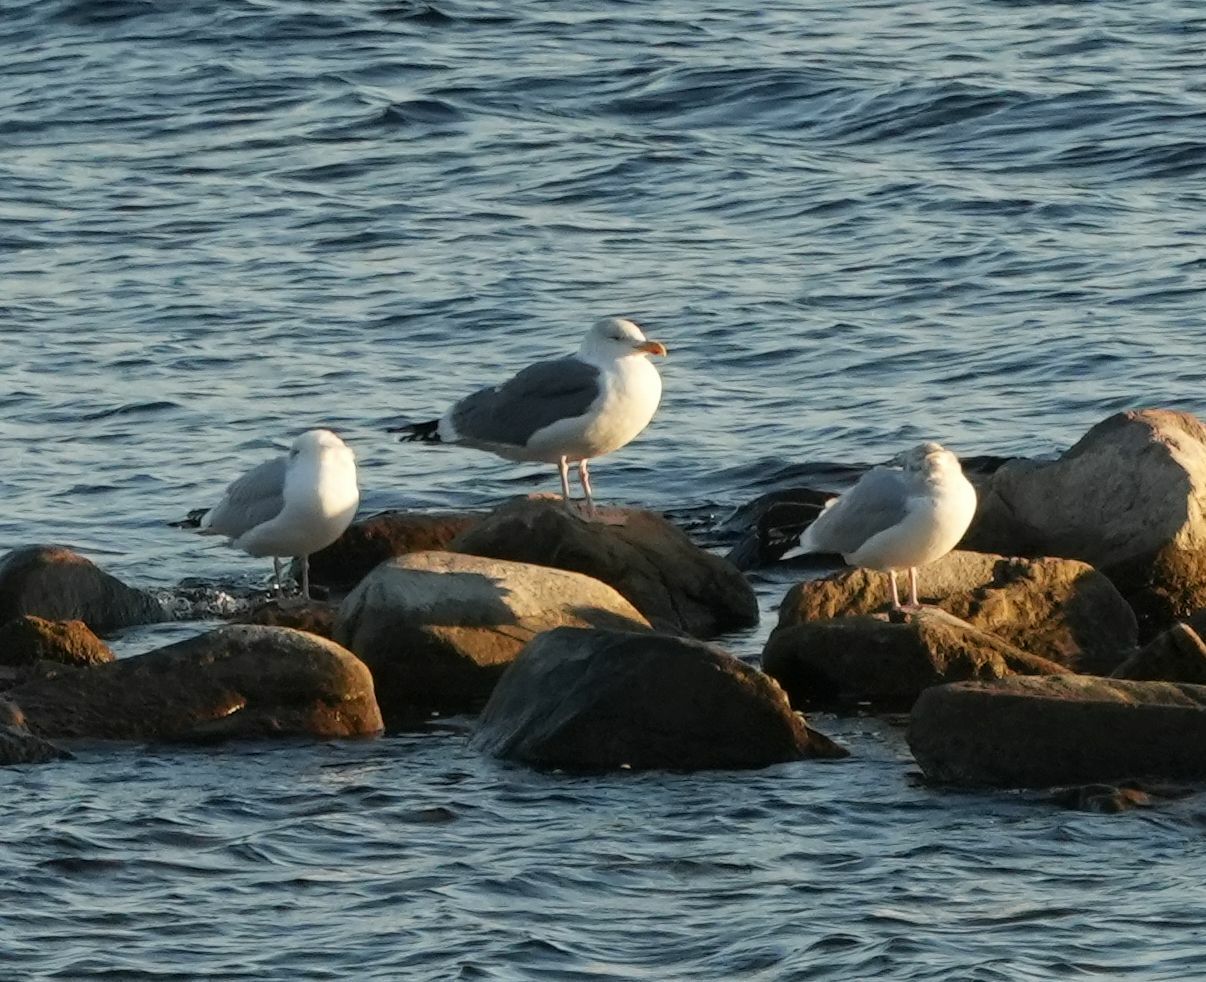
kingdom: Animalia
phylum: Chordata
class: Aves
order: Charadriiformes
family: Laridae
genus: Larus
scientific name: Larus
